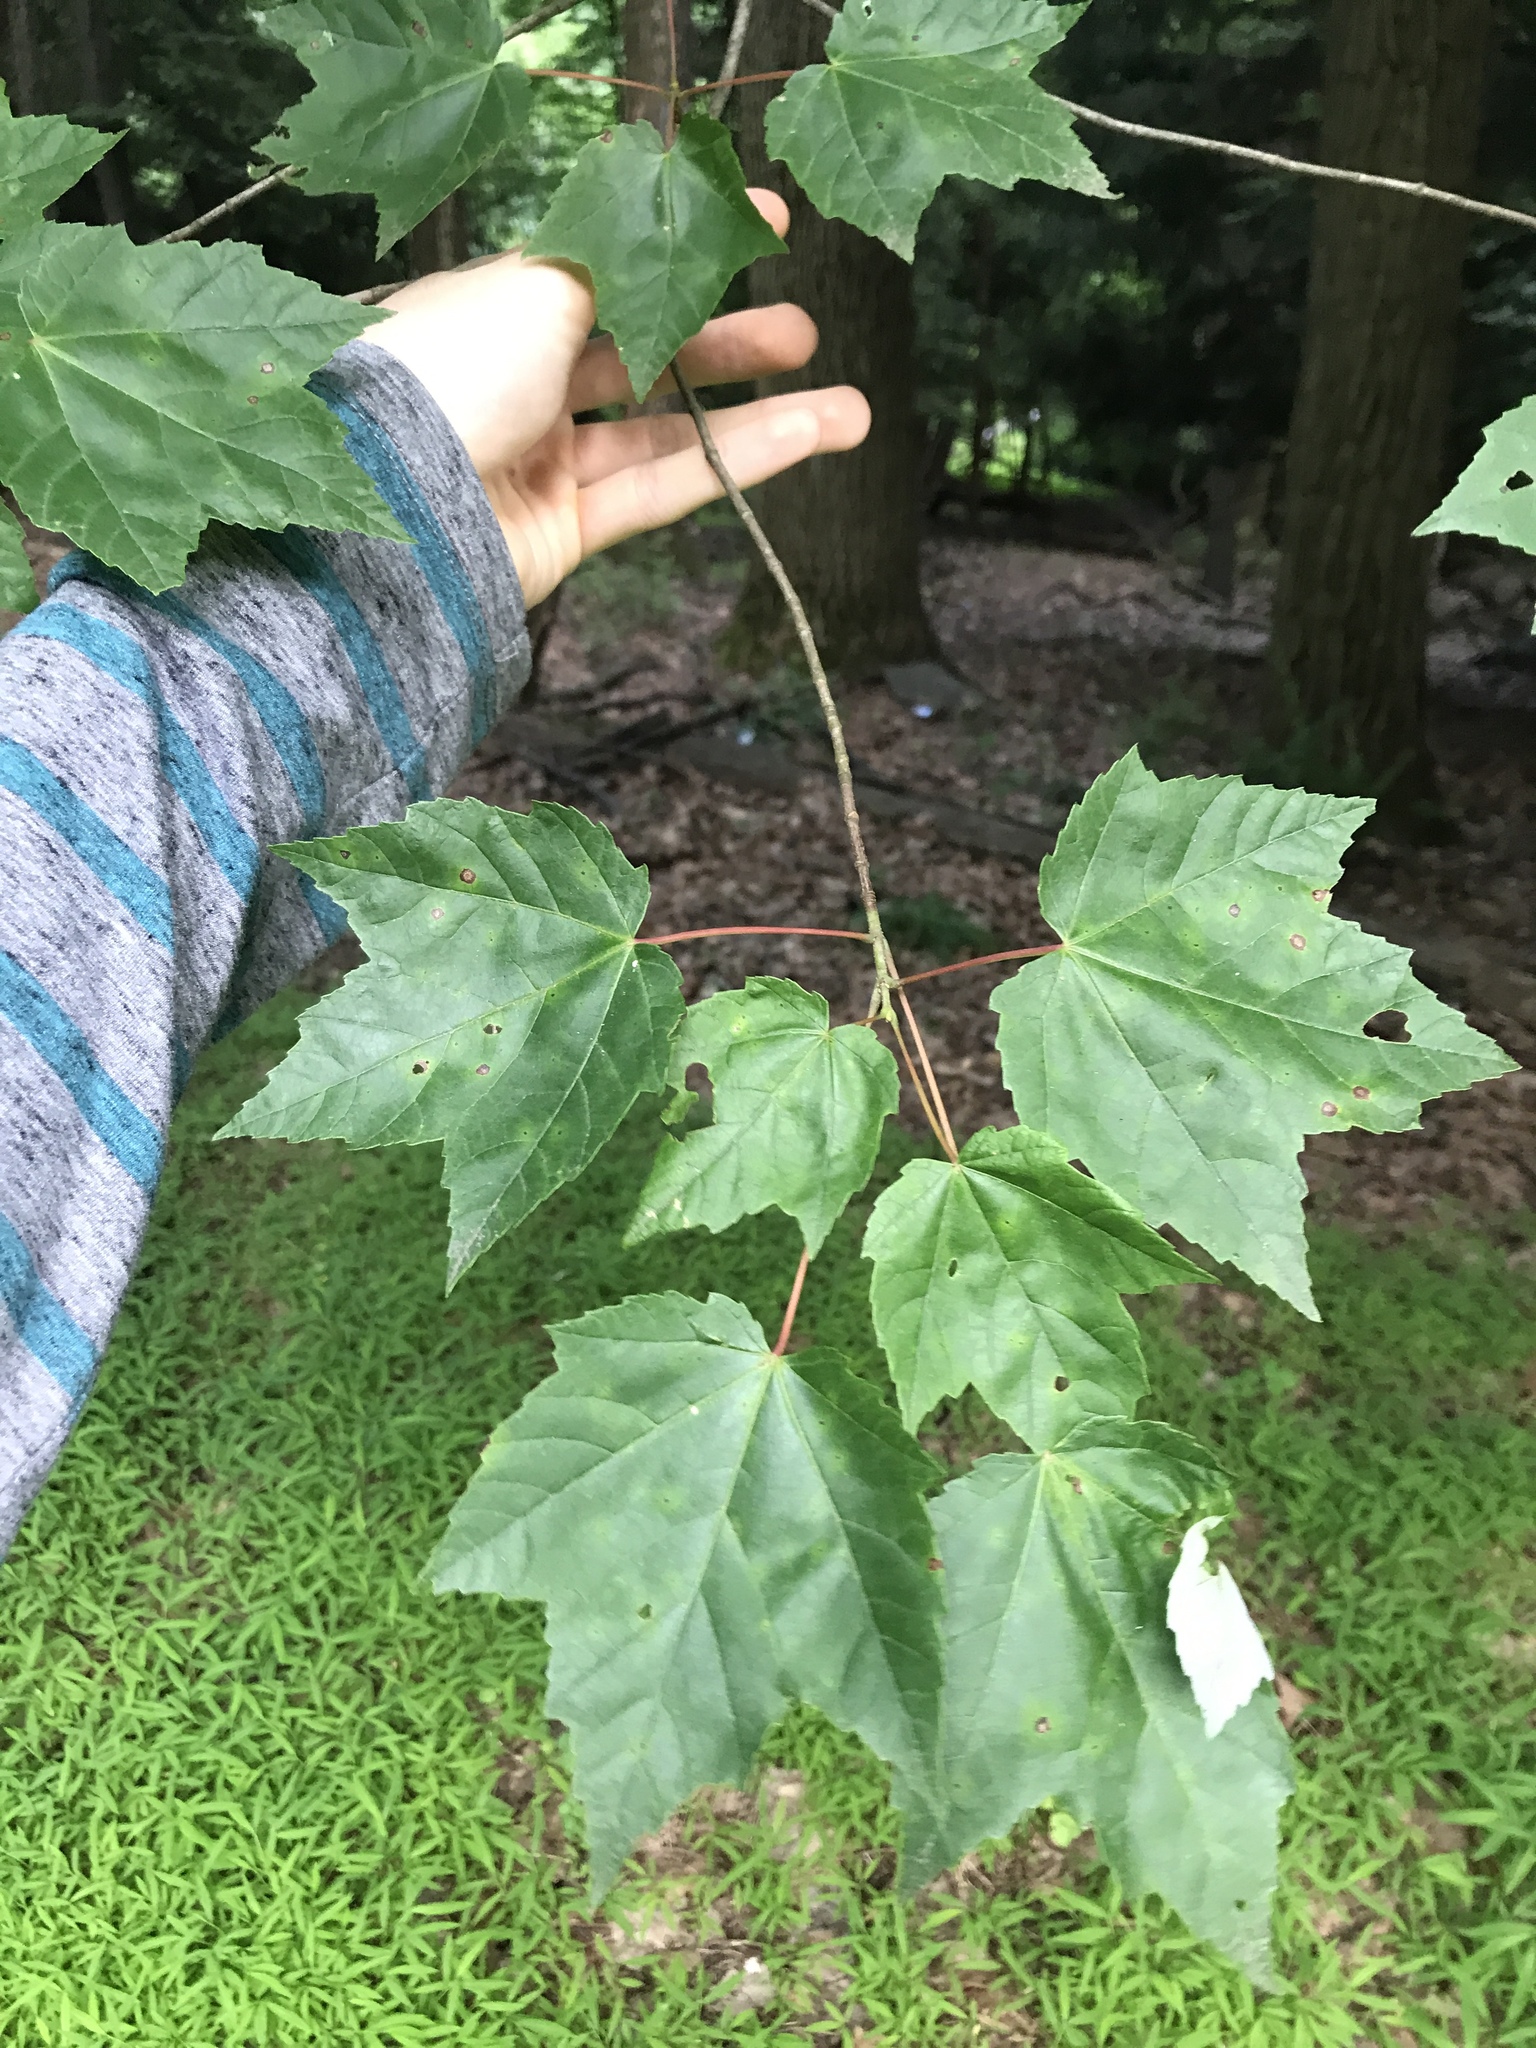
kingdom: Plantae
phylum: Tracheophyta
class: Magnoliopsida
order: Sapindales
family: Sapindaceae
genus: Acer
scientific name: Acer rubrum
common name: Red maple
